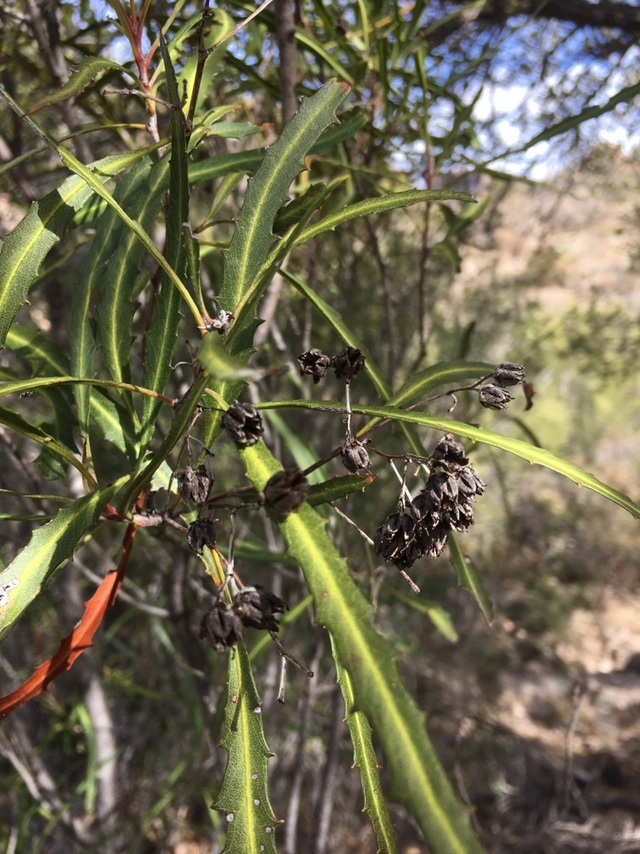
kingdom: Plantae
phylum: Tracheophyta
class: Magnoliopsida
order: Rosales
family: Rosaceae
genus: Vauquelinia
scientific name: Vauquelinia corymbosa
